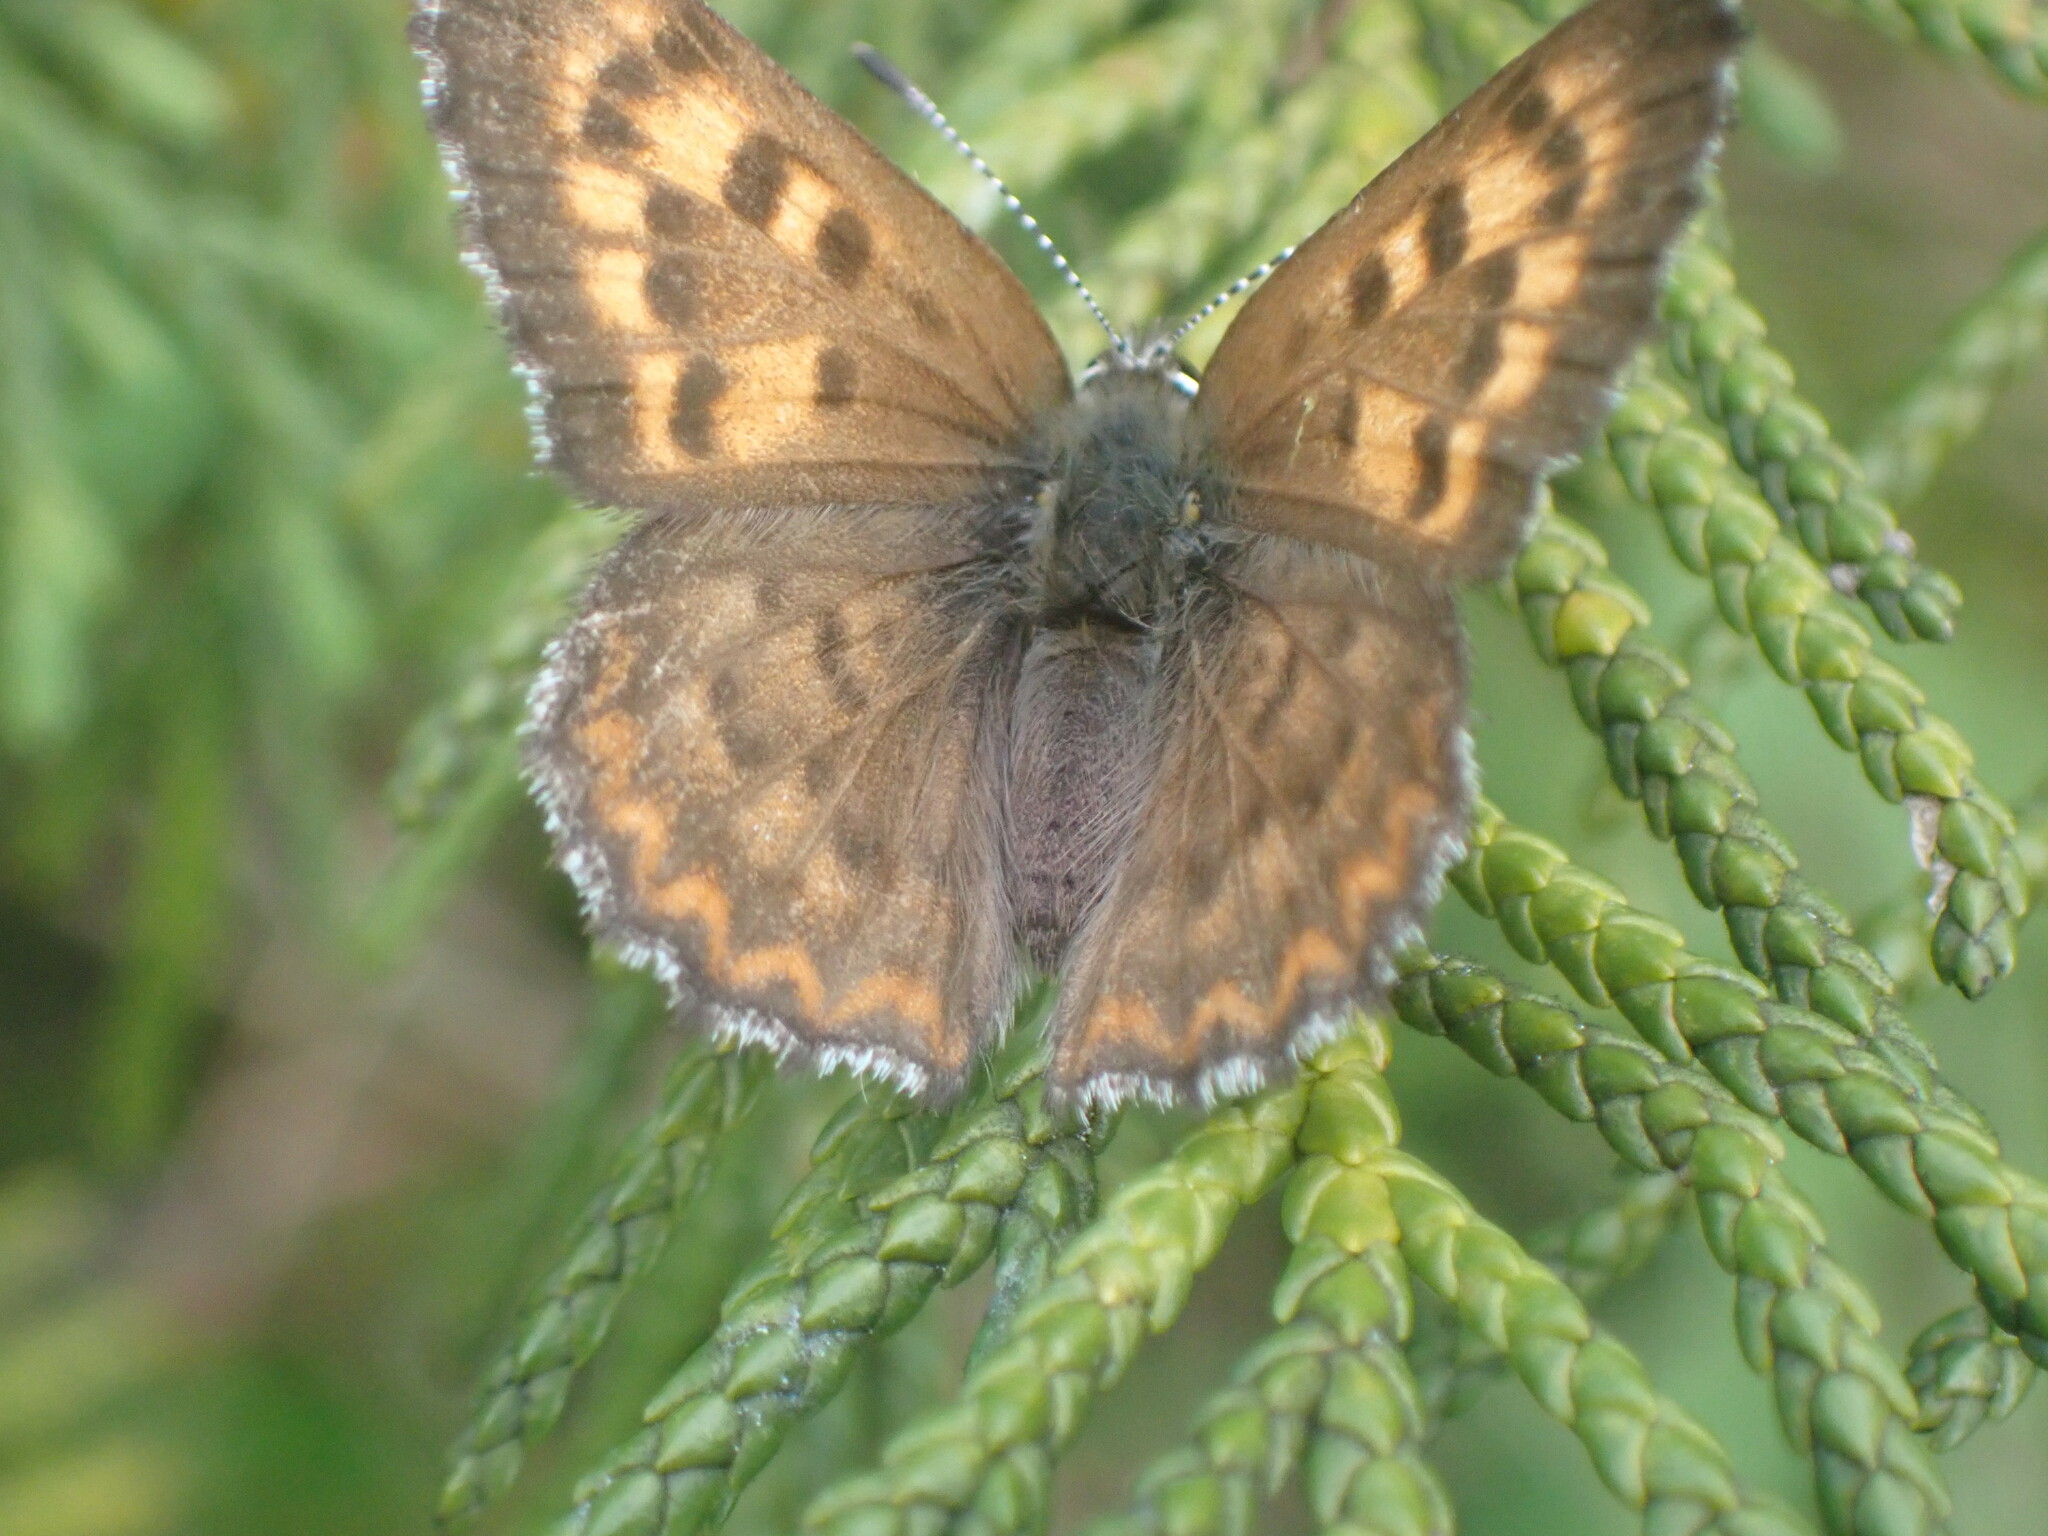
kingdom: Animalia
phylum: Arthropoda
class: Insecta
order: Lepidoptera
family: Lycaenidae
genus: Tharsalea
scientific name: Tharsalea mariposa
